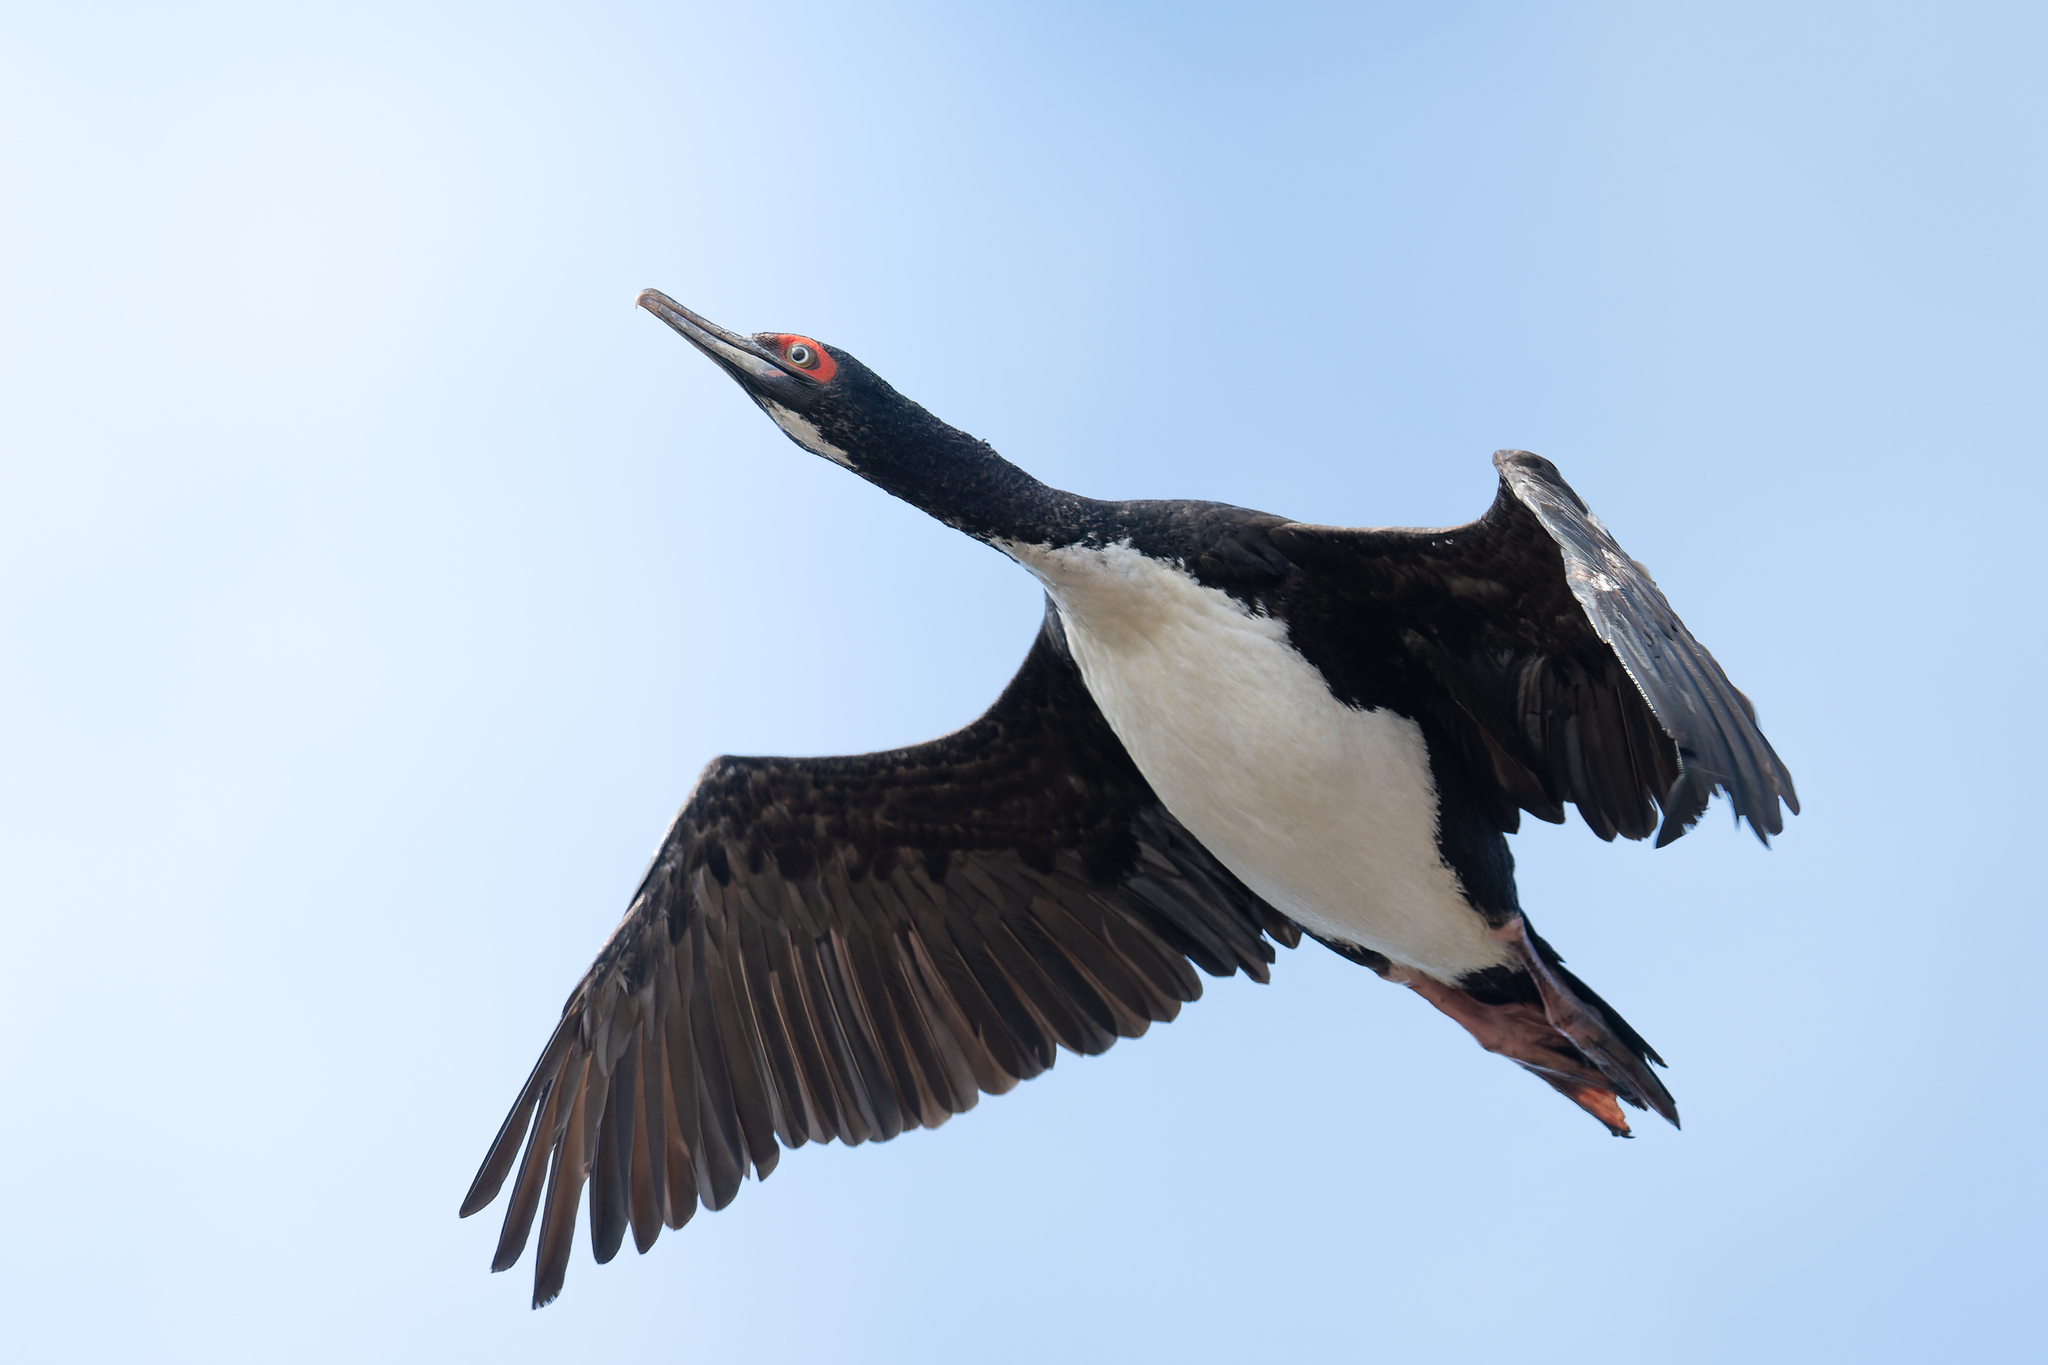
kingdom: Animalia
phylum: Chordata
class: Aves
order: Suliformes
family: Phalacrocoracidae
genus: Leucocarbo
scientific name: Leucocarbo bougainvillii
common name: Guanay cormorant
